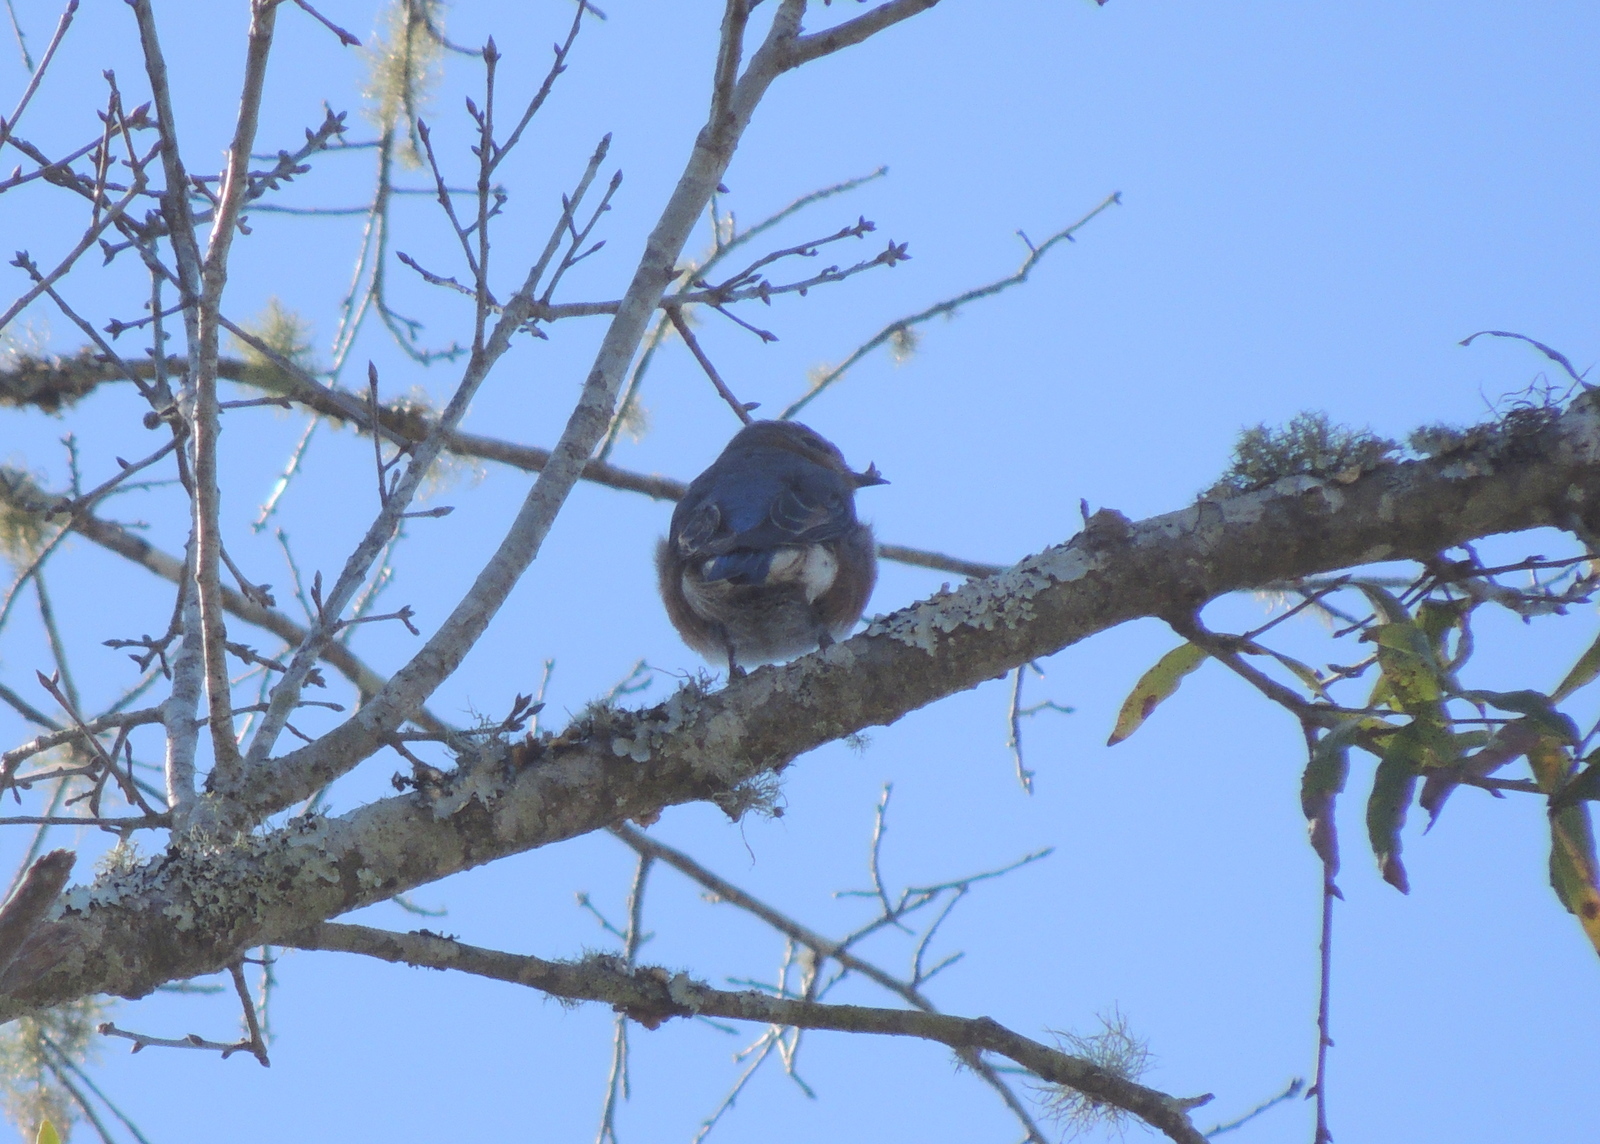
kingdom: Animalia
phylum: Chordata
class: Aves
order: Passeriformes
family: Turdidae
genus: Sialia
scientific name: Sialia sialis
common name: Eastern bluebird
